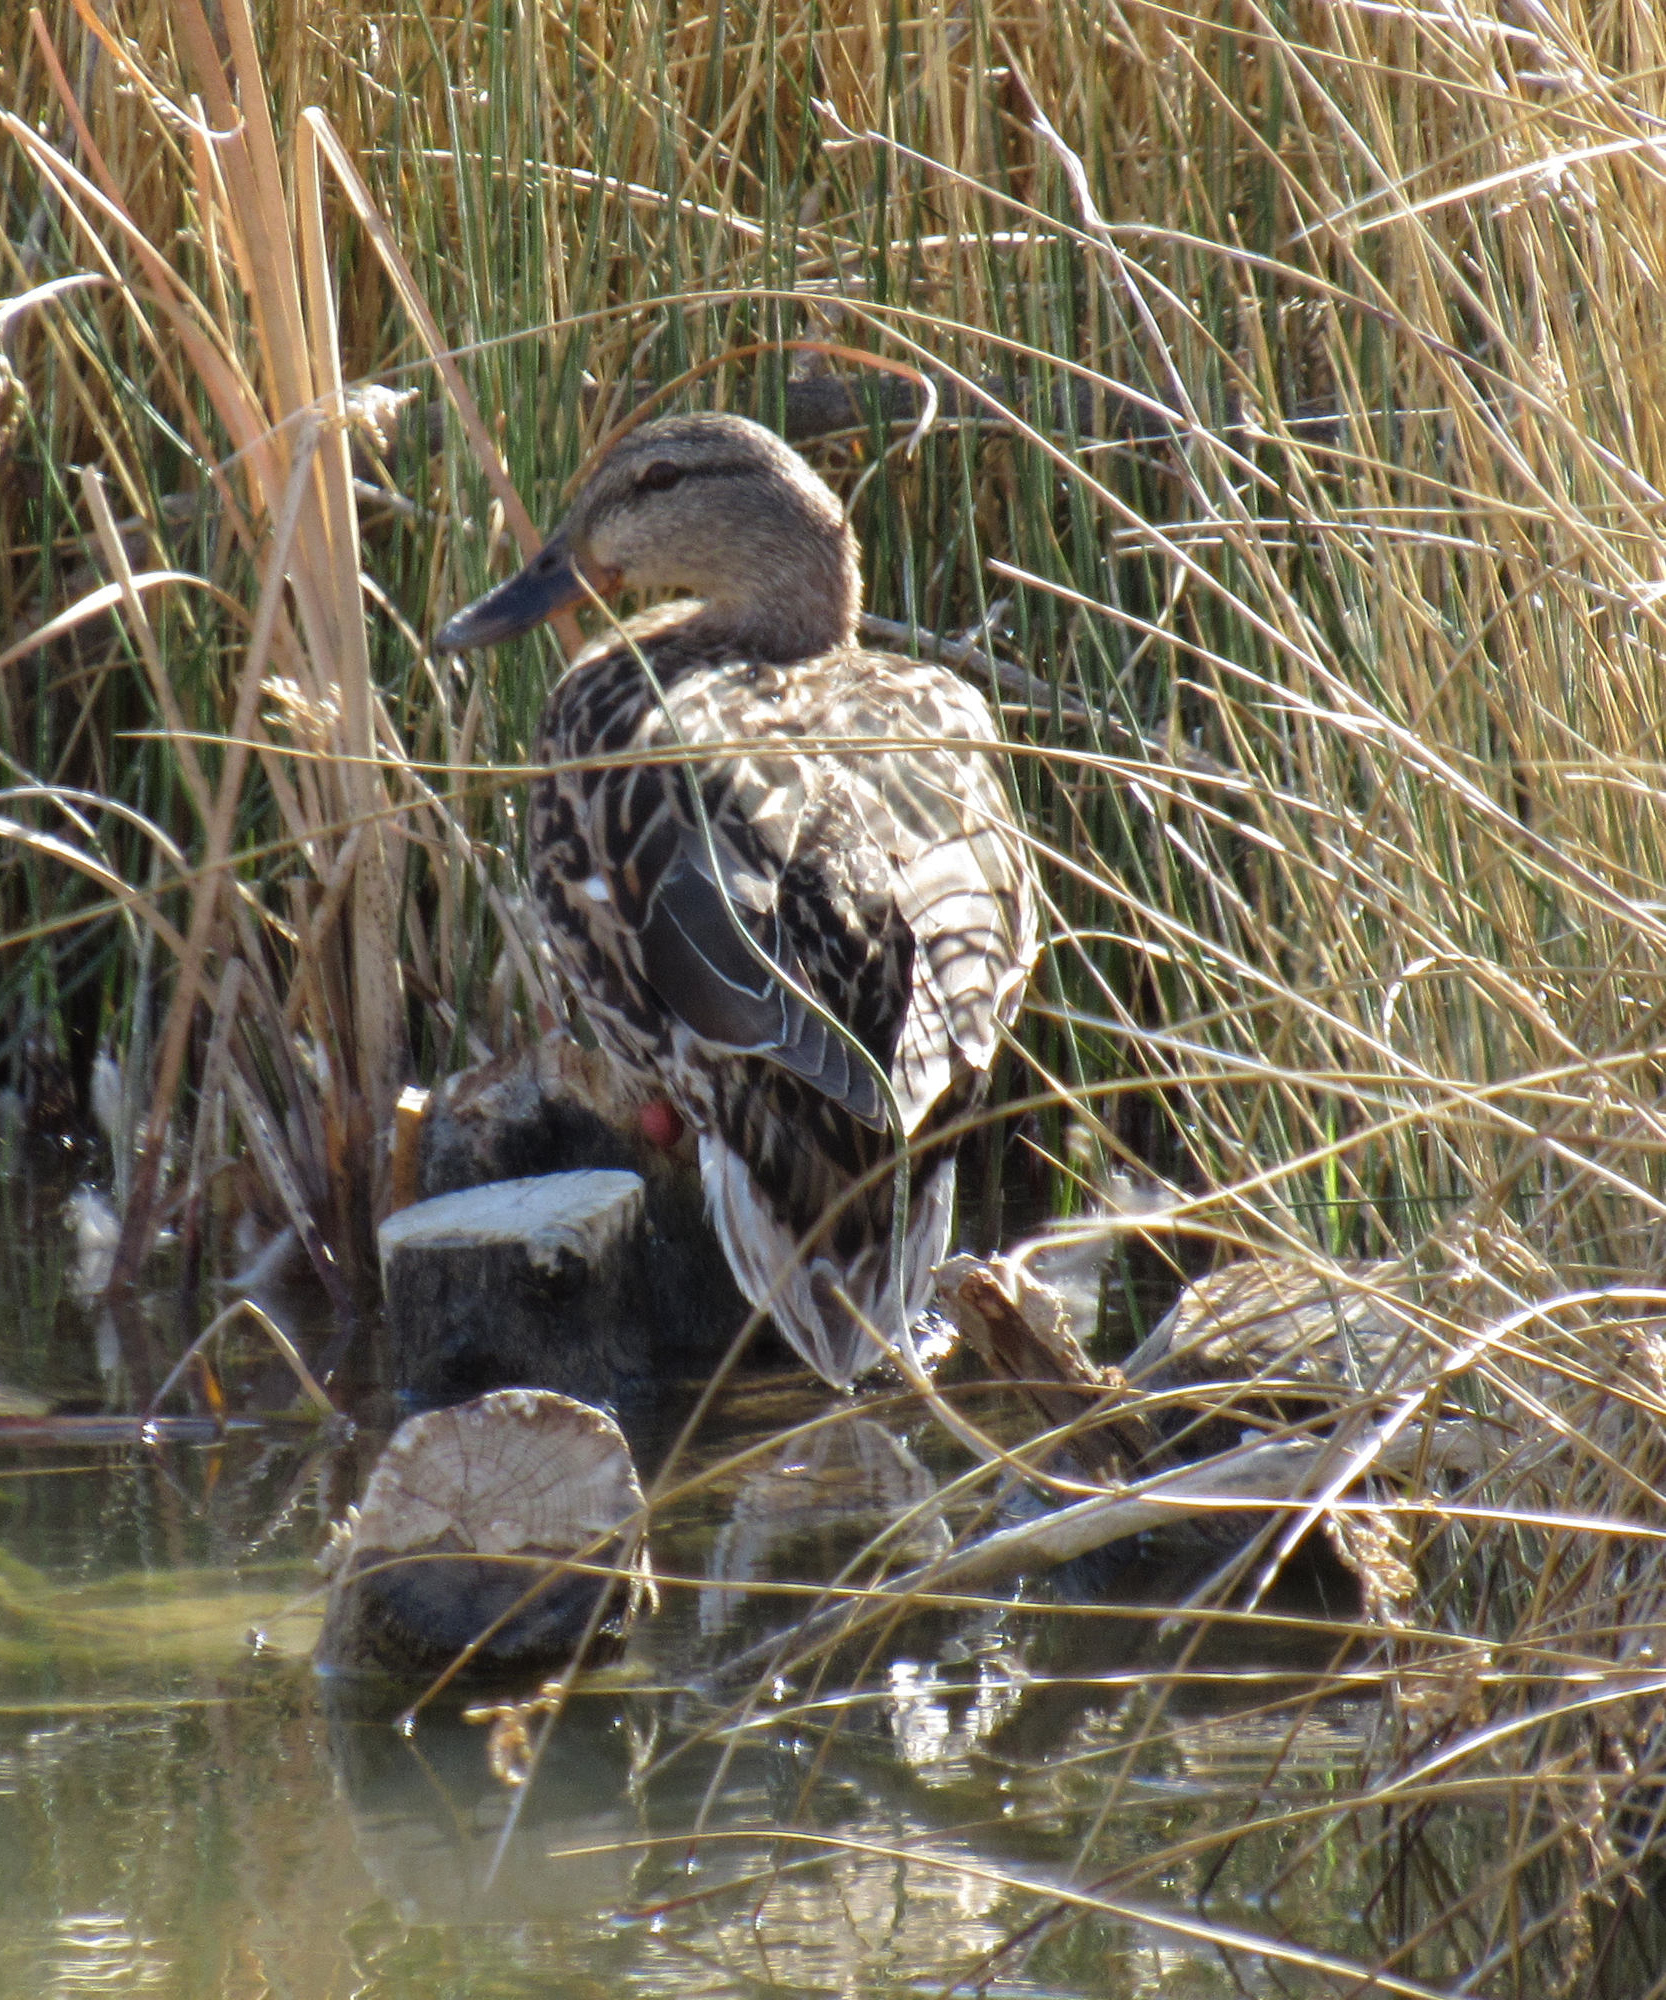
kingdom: Animalia
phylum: Chordata
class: Aves
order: Anseriformes
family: Anatidae
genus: Anas
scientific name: Anas platyrhynchos
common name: Mallard
